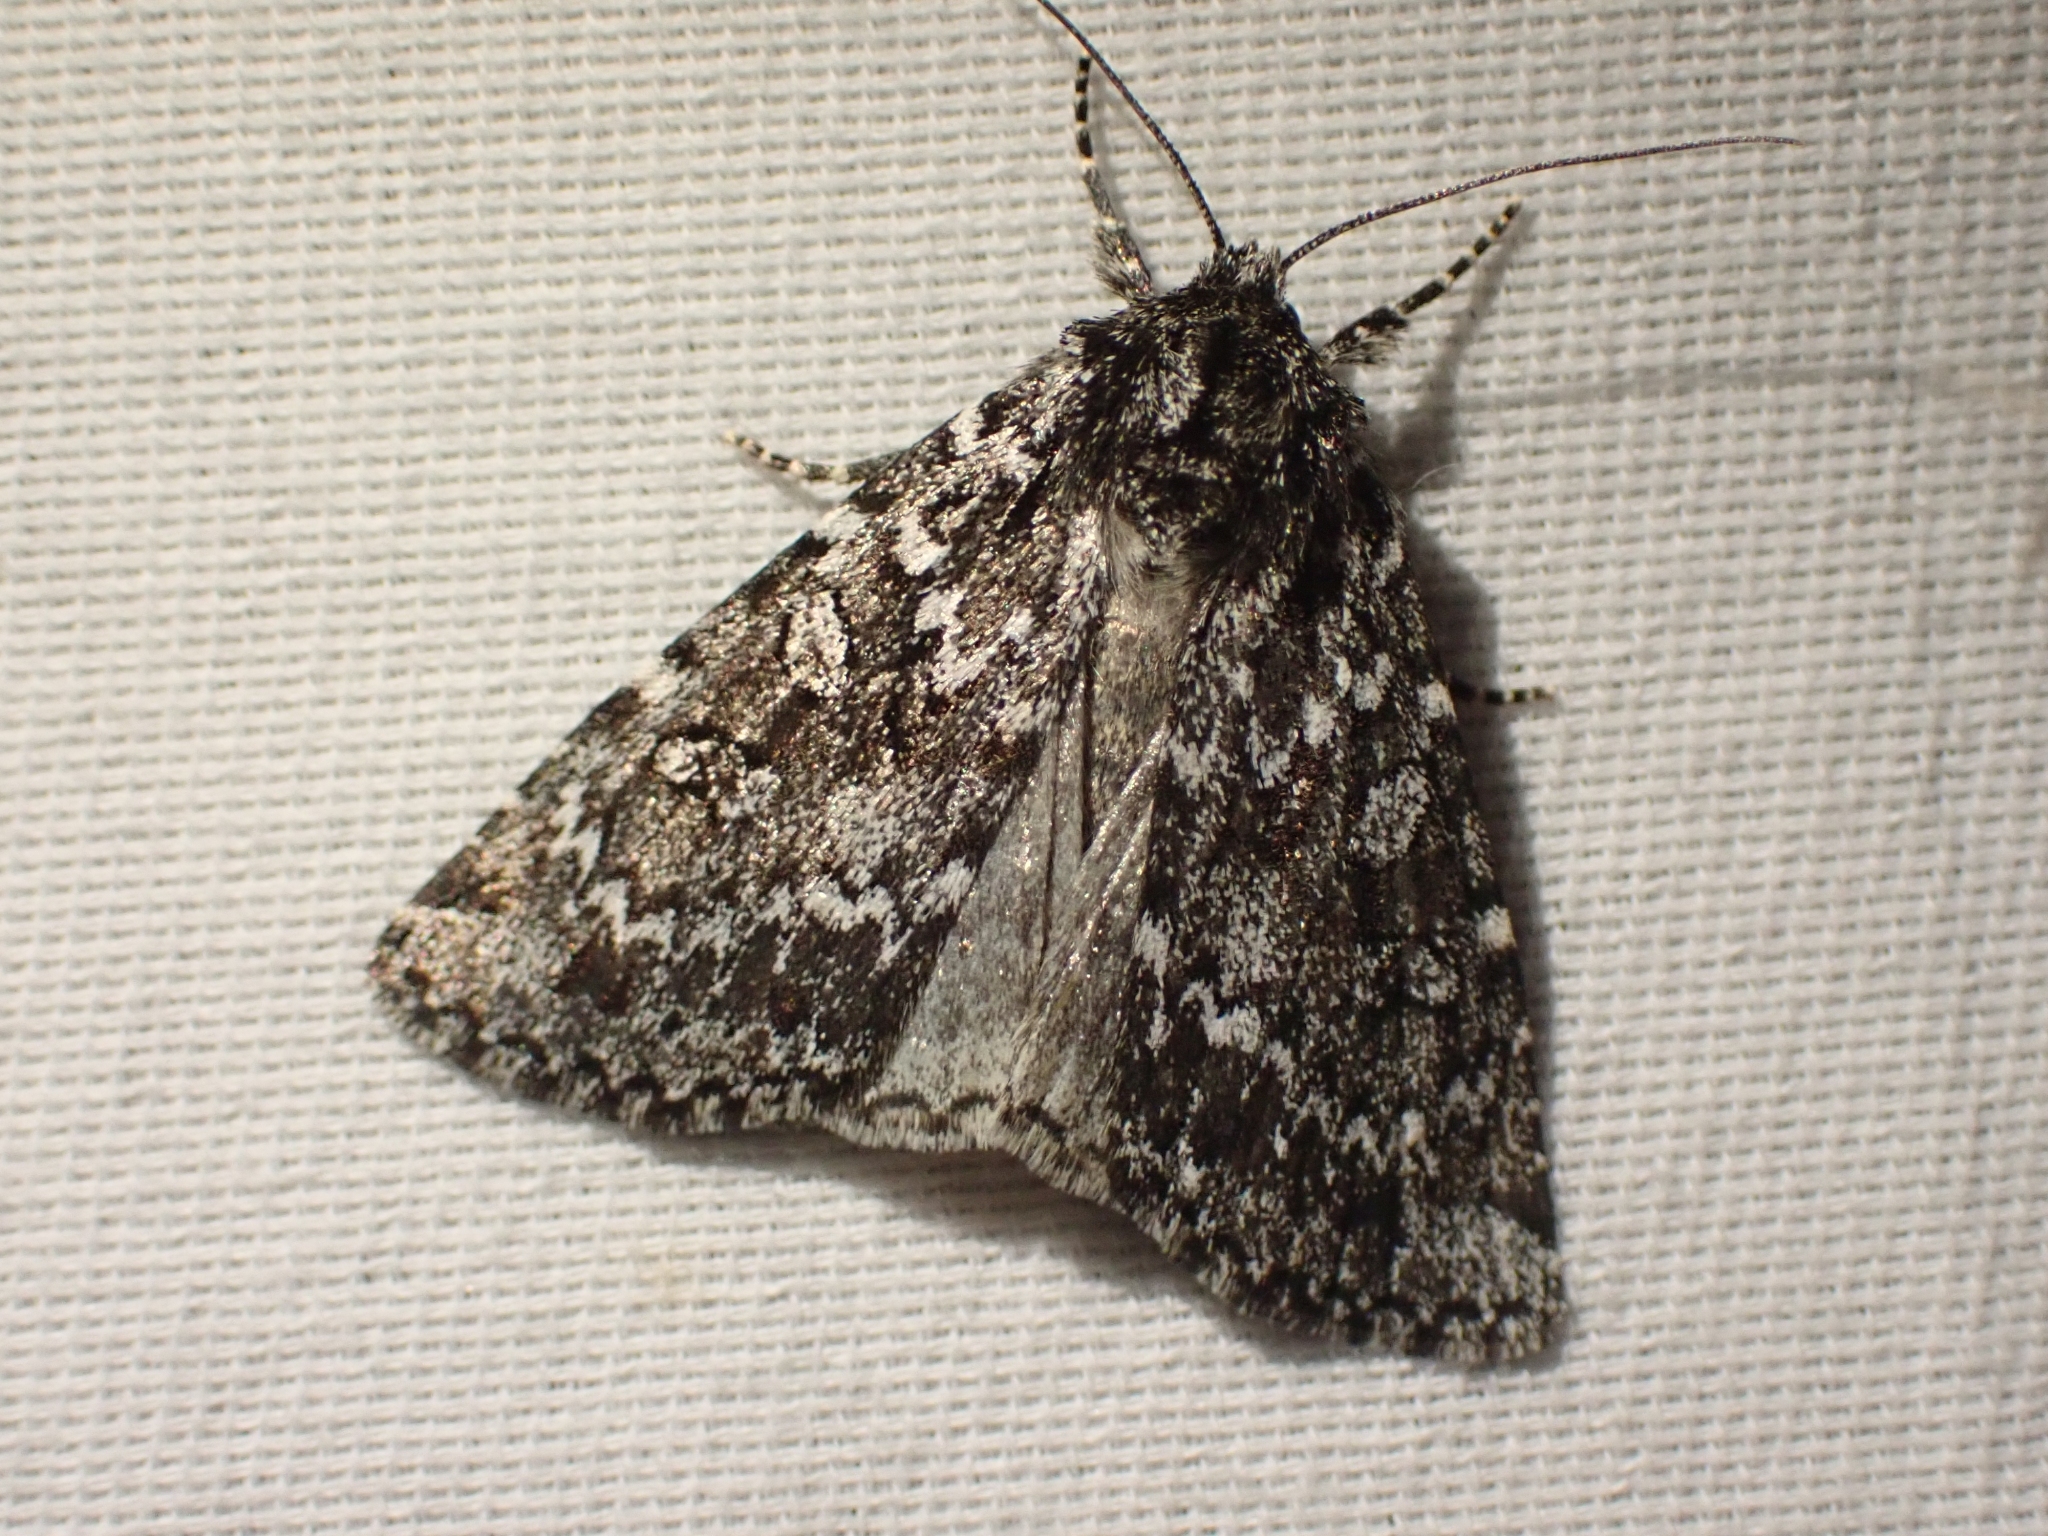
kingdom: Animalia
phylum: Arthropoda
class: Insecta
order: Lepidoptera
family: Noctuidae
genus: Xestia
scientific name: Xestia mixta
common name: Mixta xestia moth
